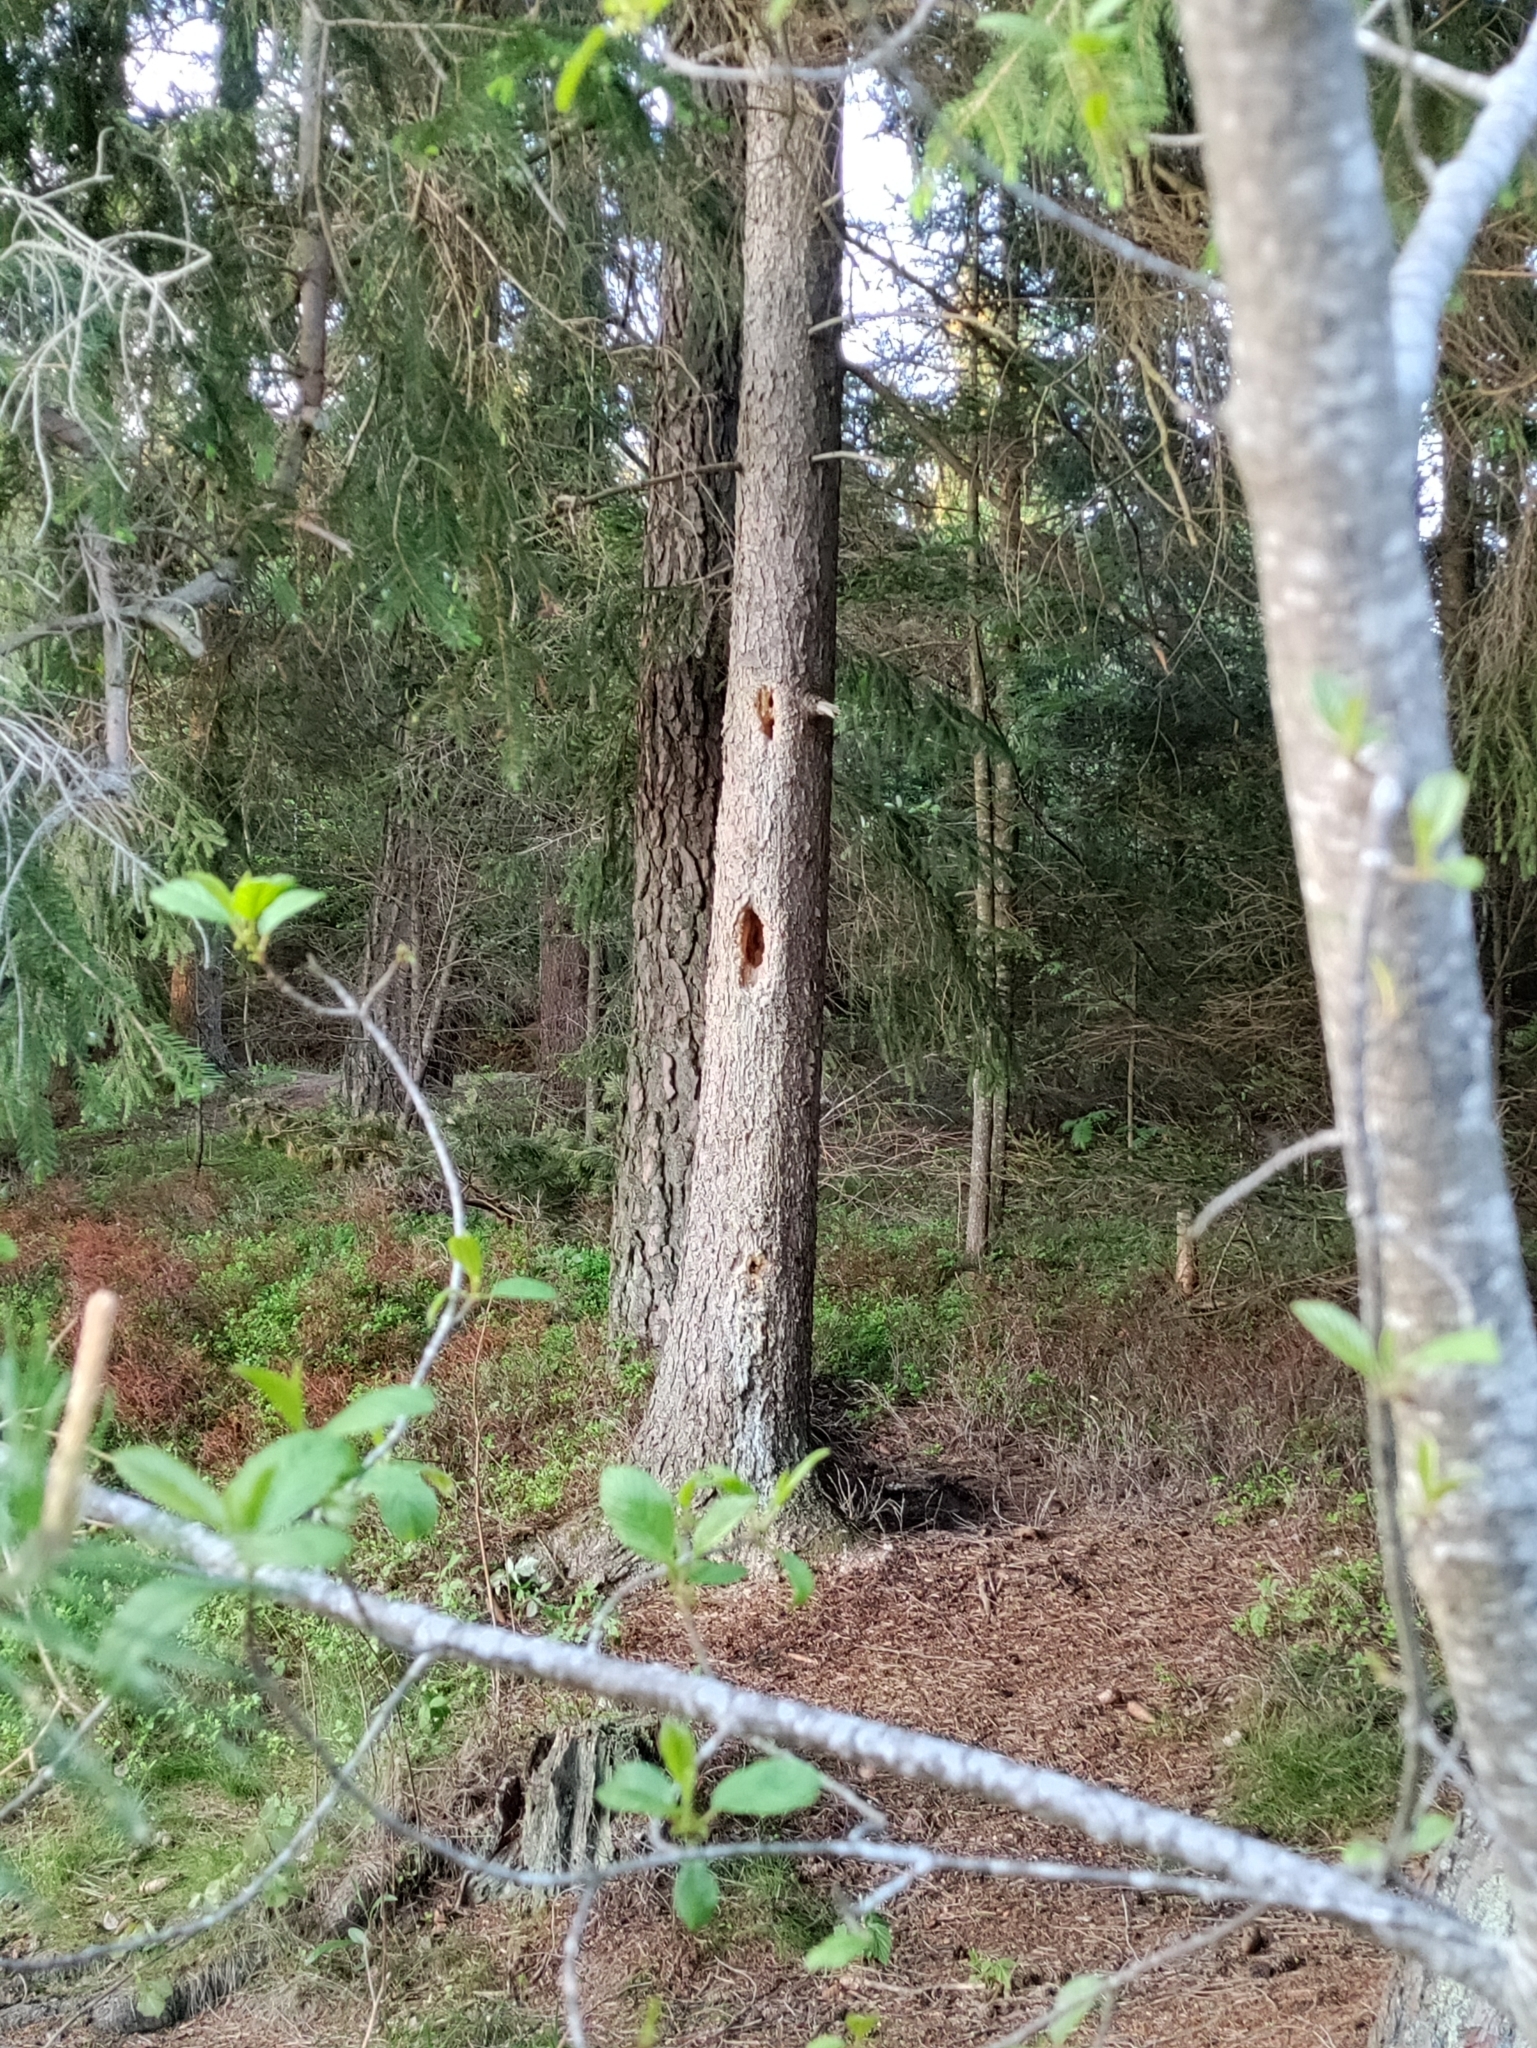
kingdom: Animalia
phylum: Chordata
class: Aves
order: Piciformes
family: Picidae
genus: Dryocopus
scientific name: Dryocopus martius
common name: Black woodpecker
